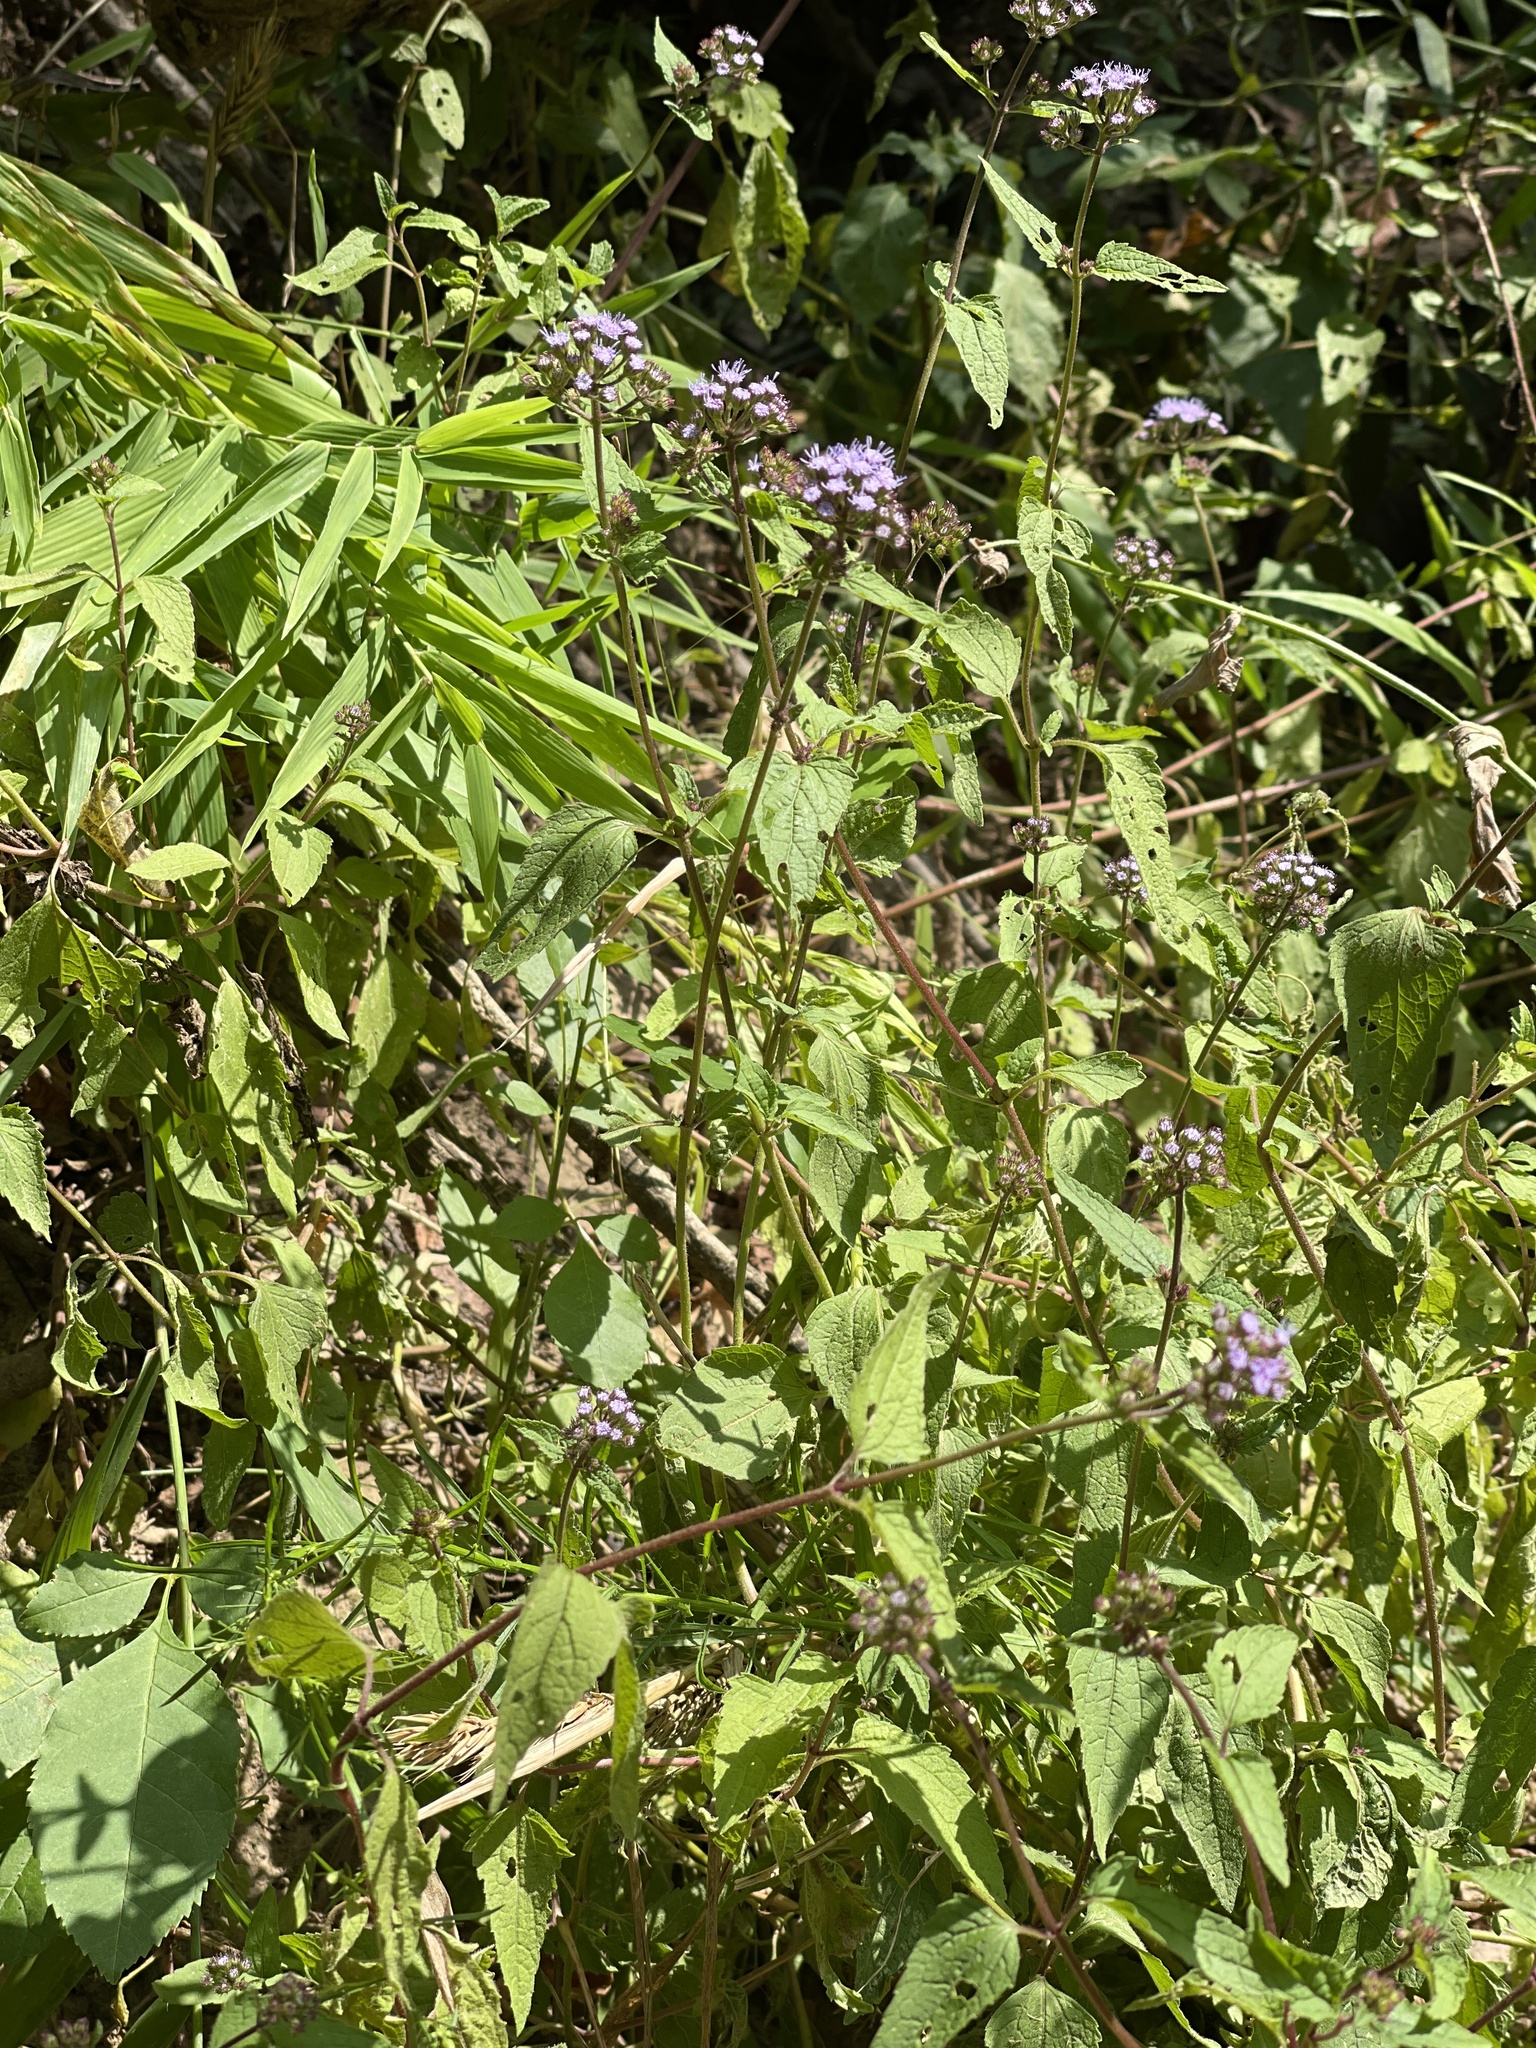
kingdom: Plantae
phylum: Tracheophyta
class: Magnoliopsida
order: Asterales
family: Asteraceae
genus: Conoclinium
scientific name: Conoclinium coelestinum
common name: Blue mistflower
